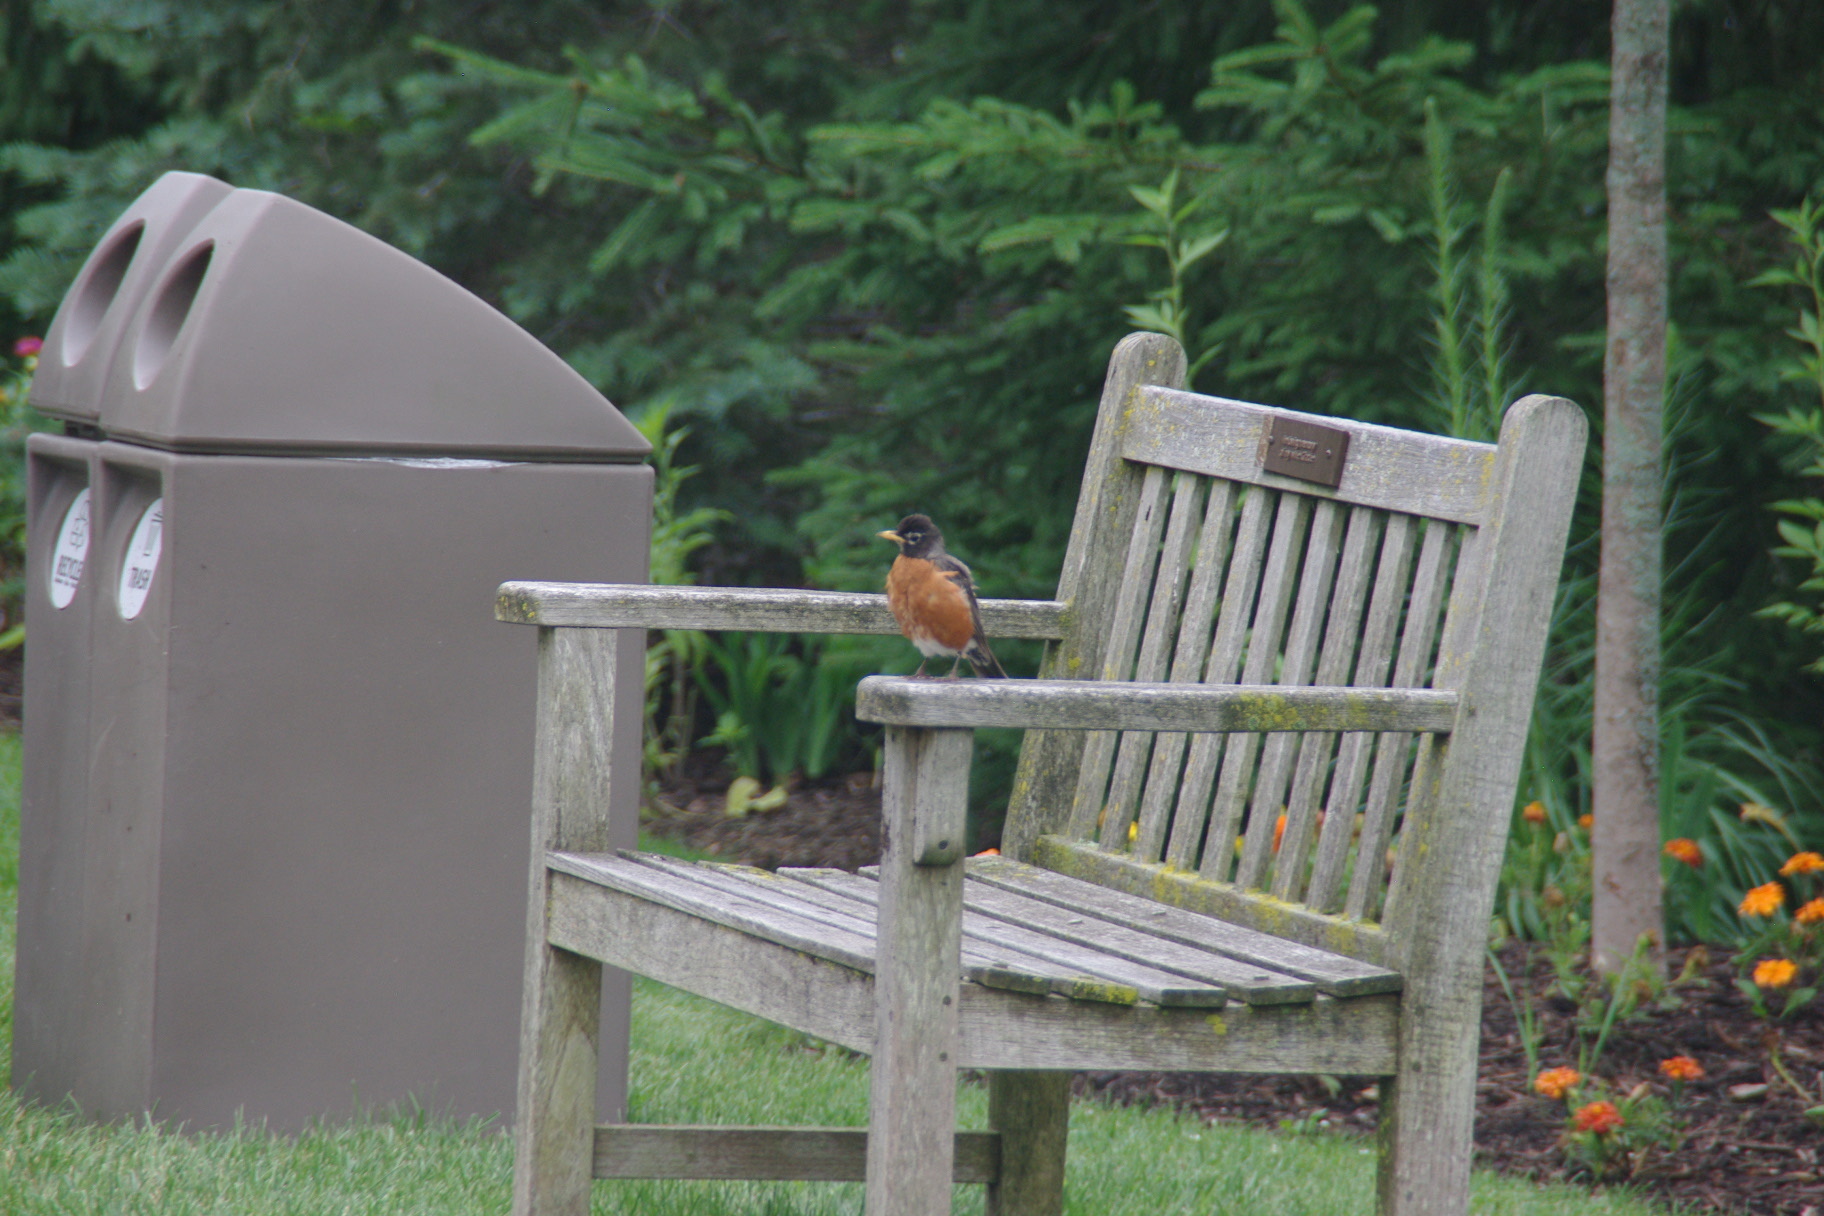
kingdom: Animalia
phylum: Chordata
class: Aves
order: Passeriformes
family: Turdidae
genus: Turdus
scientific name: Turdus migratorius
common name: American robin
